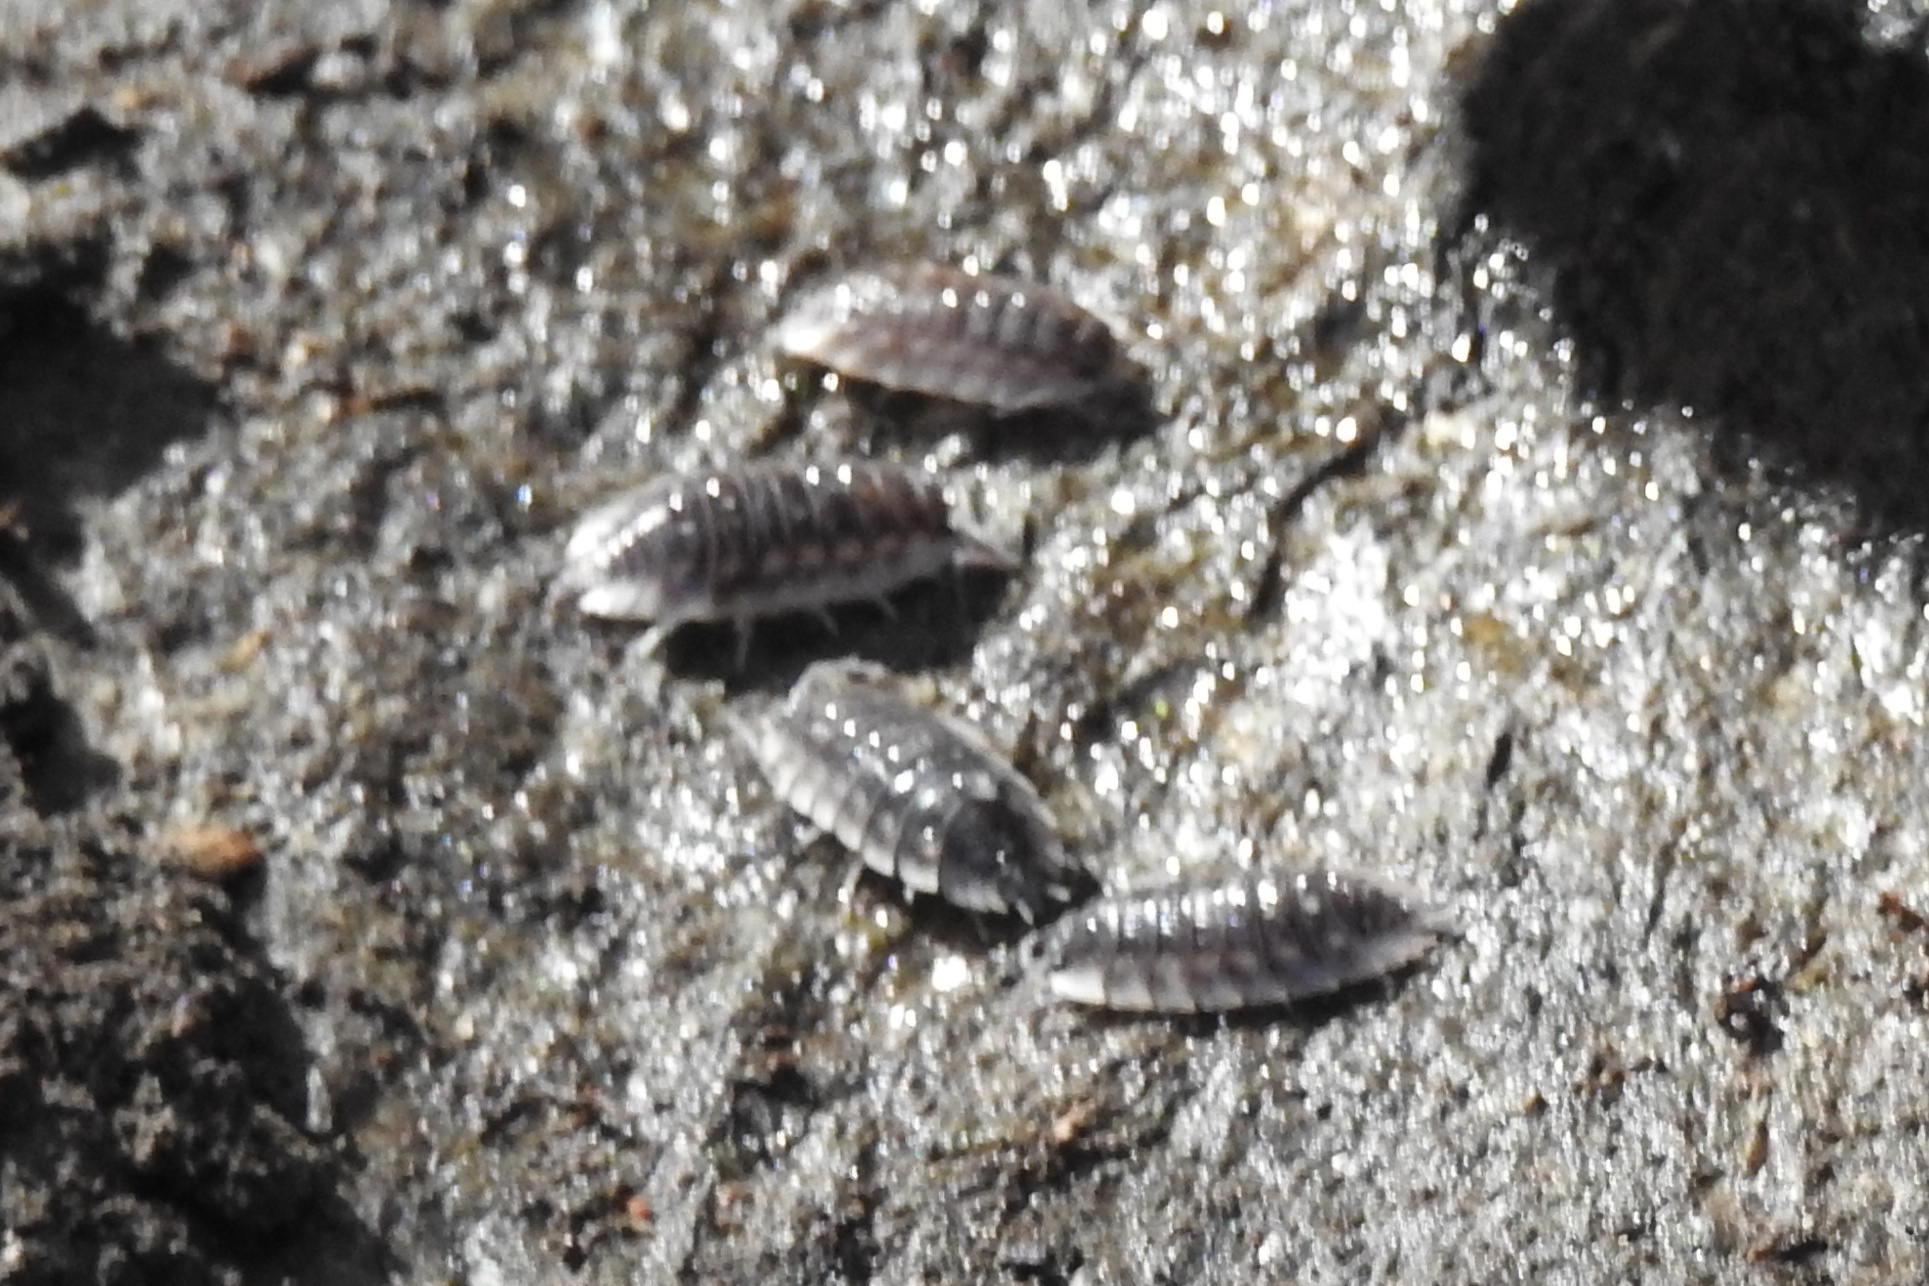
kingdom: Animalia
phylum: Arthropoda
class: Malacostraca
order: Isopoda
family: Oniscidae
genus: Oniscus
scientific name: Oniscus asellus
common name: Common shiny woodlouse
